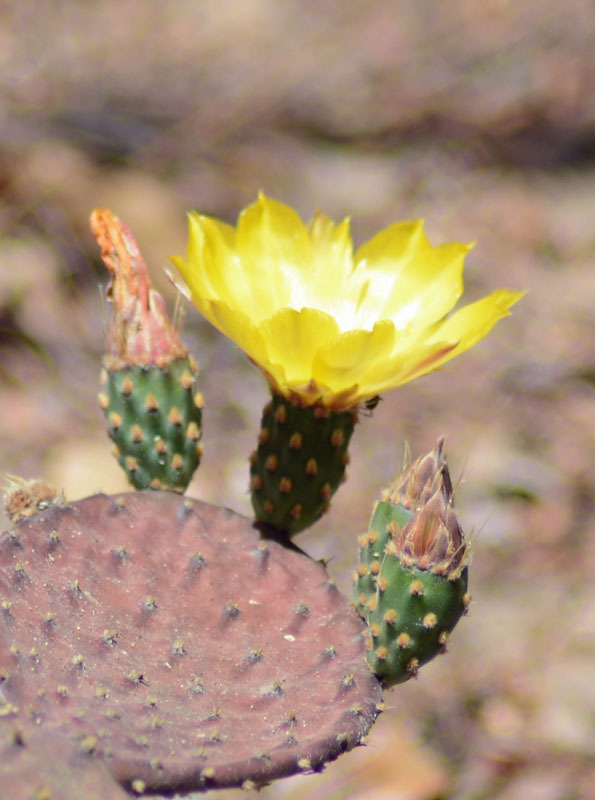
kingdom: Plantae
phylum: Tracheophyta
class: Magnoliopsida
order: Caryophyllales
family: Cactaceae
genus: Opuntia
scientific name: Opuntia decumbens
